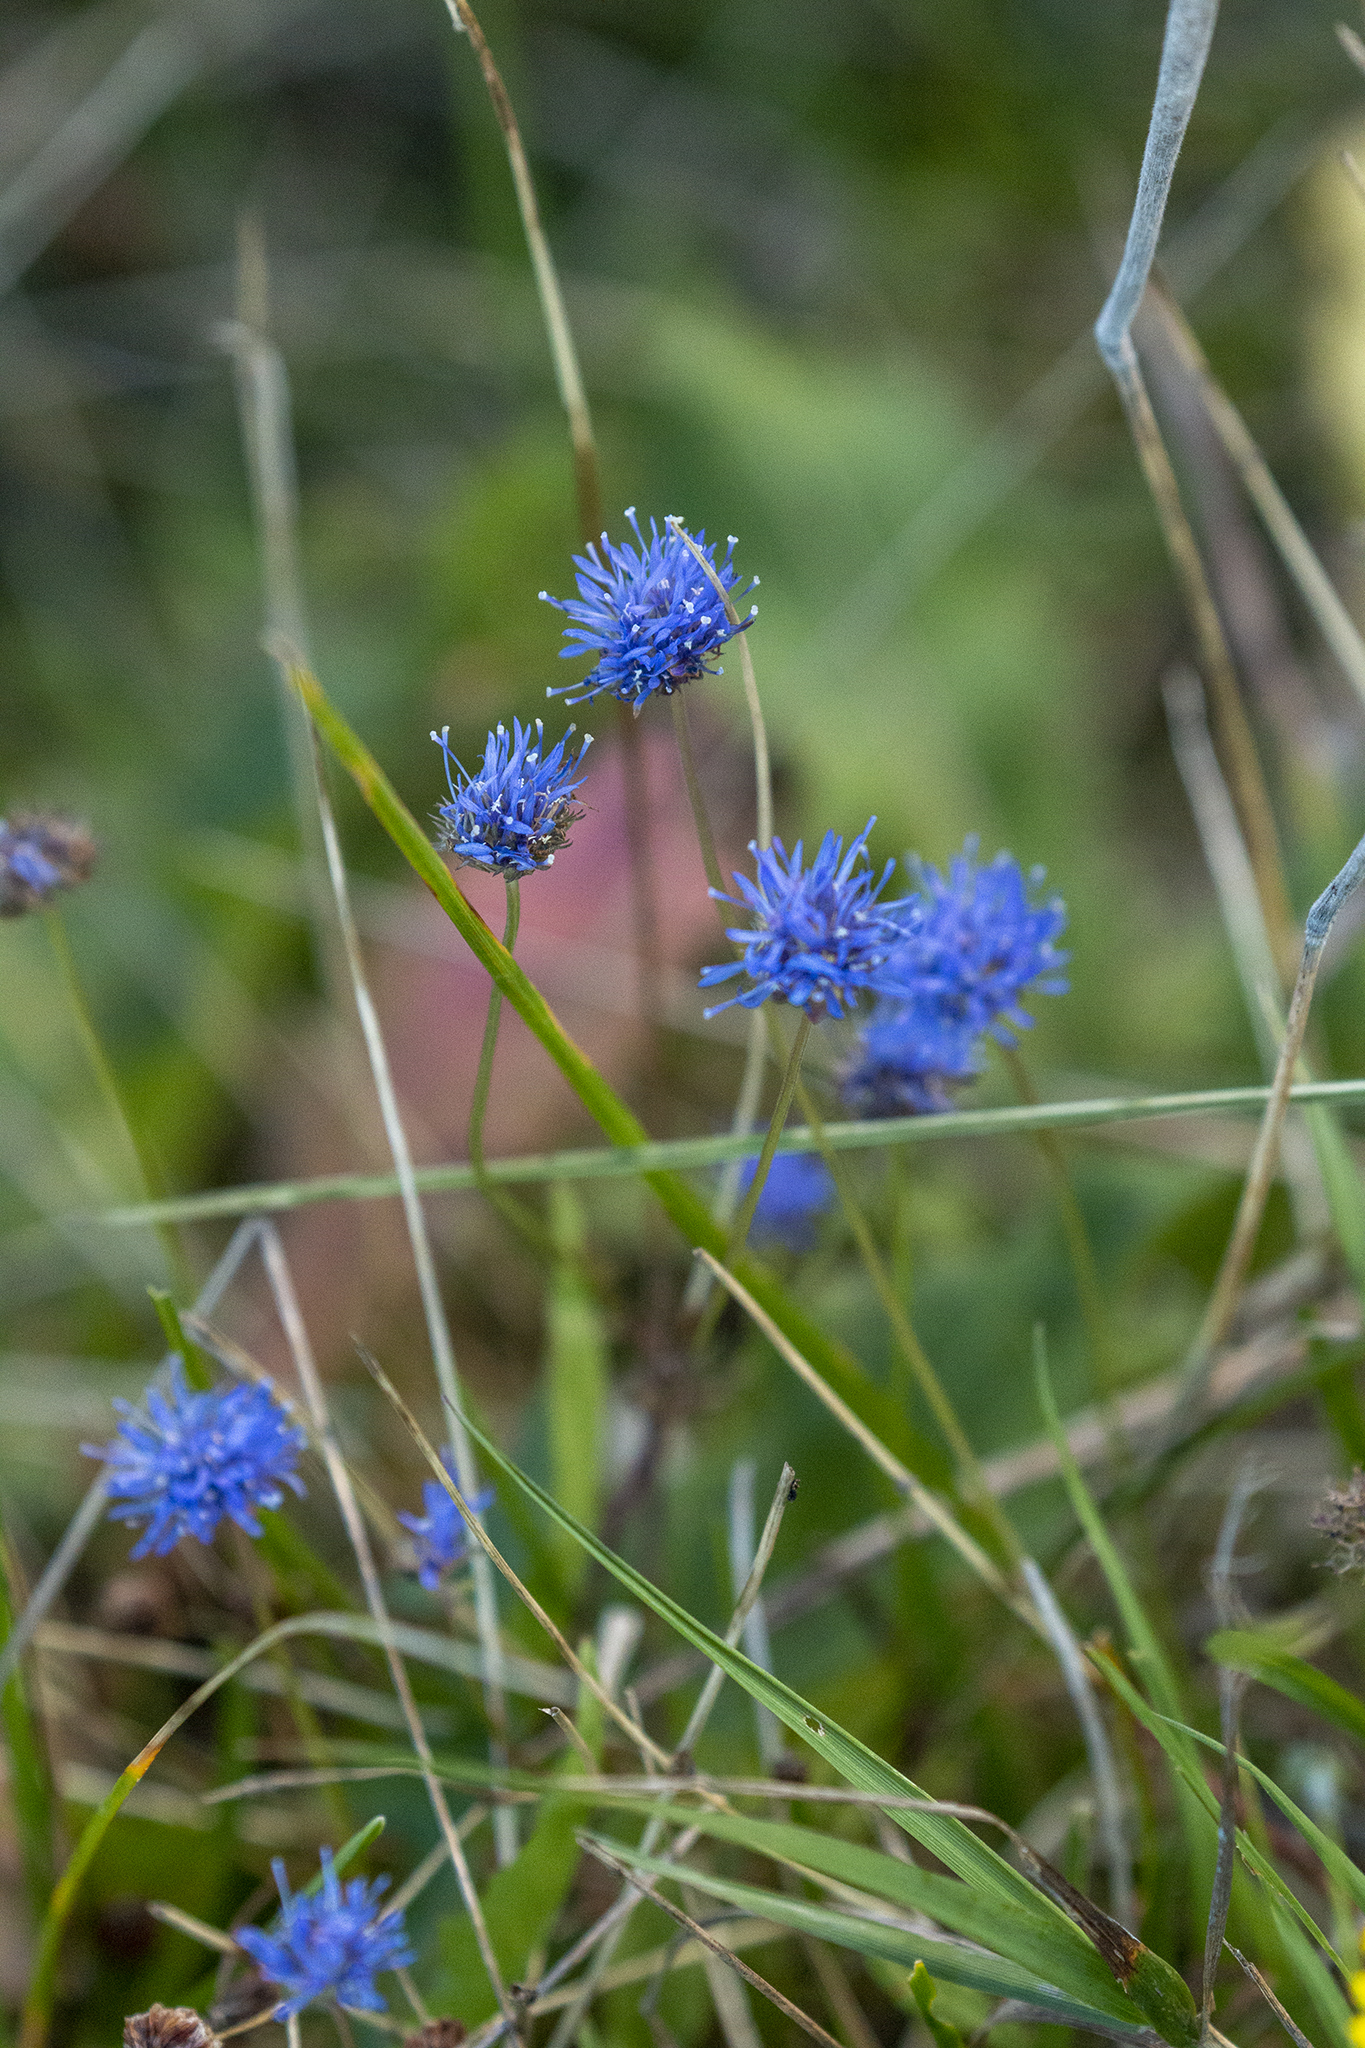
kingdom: Plantae
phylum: Tracheophyta
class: Magnoliopsida
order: Asterales
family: Campanulaceae
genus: Jasione
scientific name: Jasione montana
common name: Sheep's-bit
